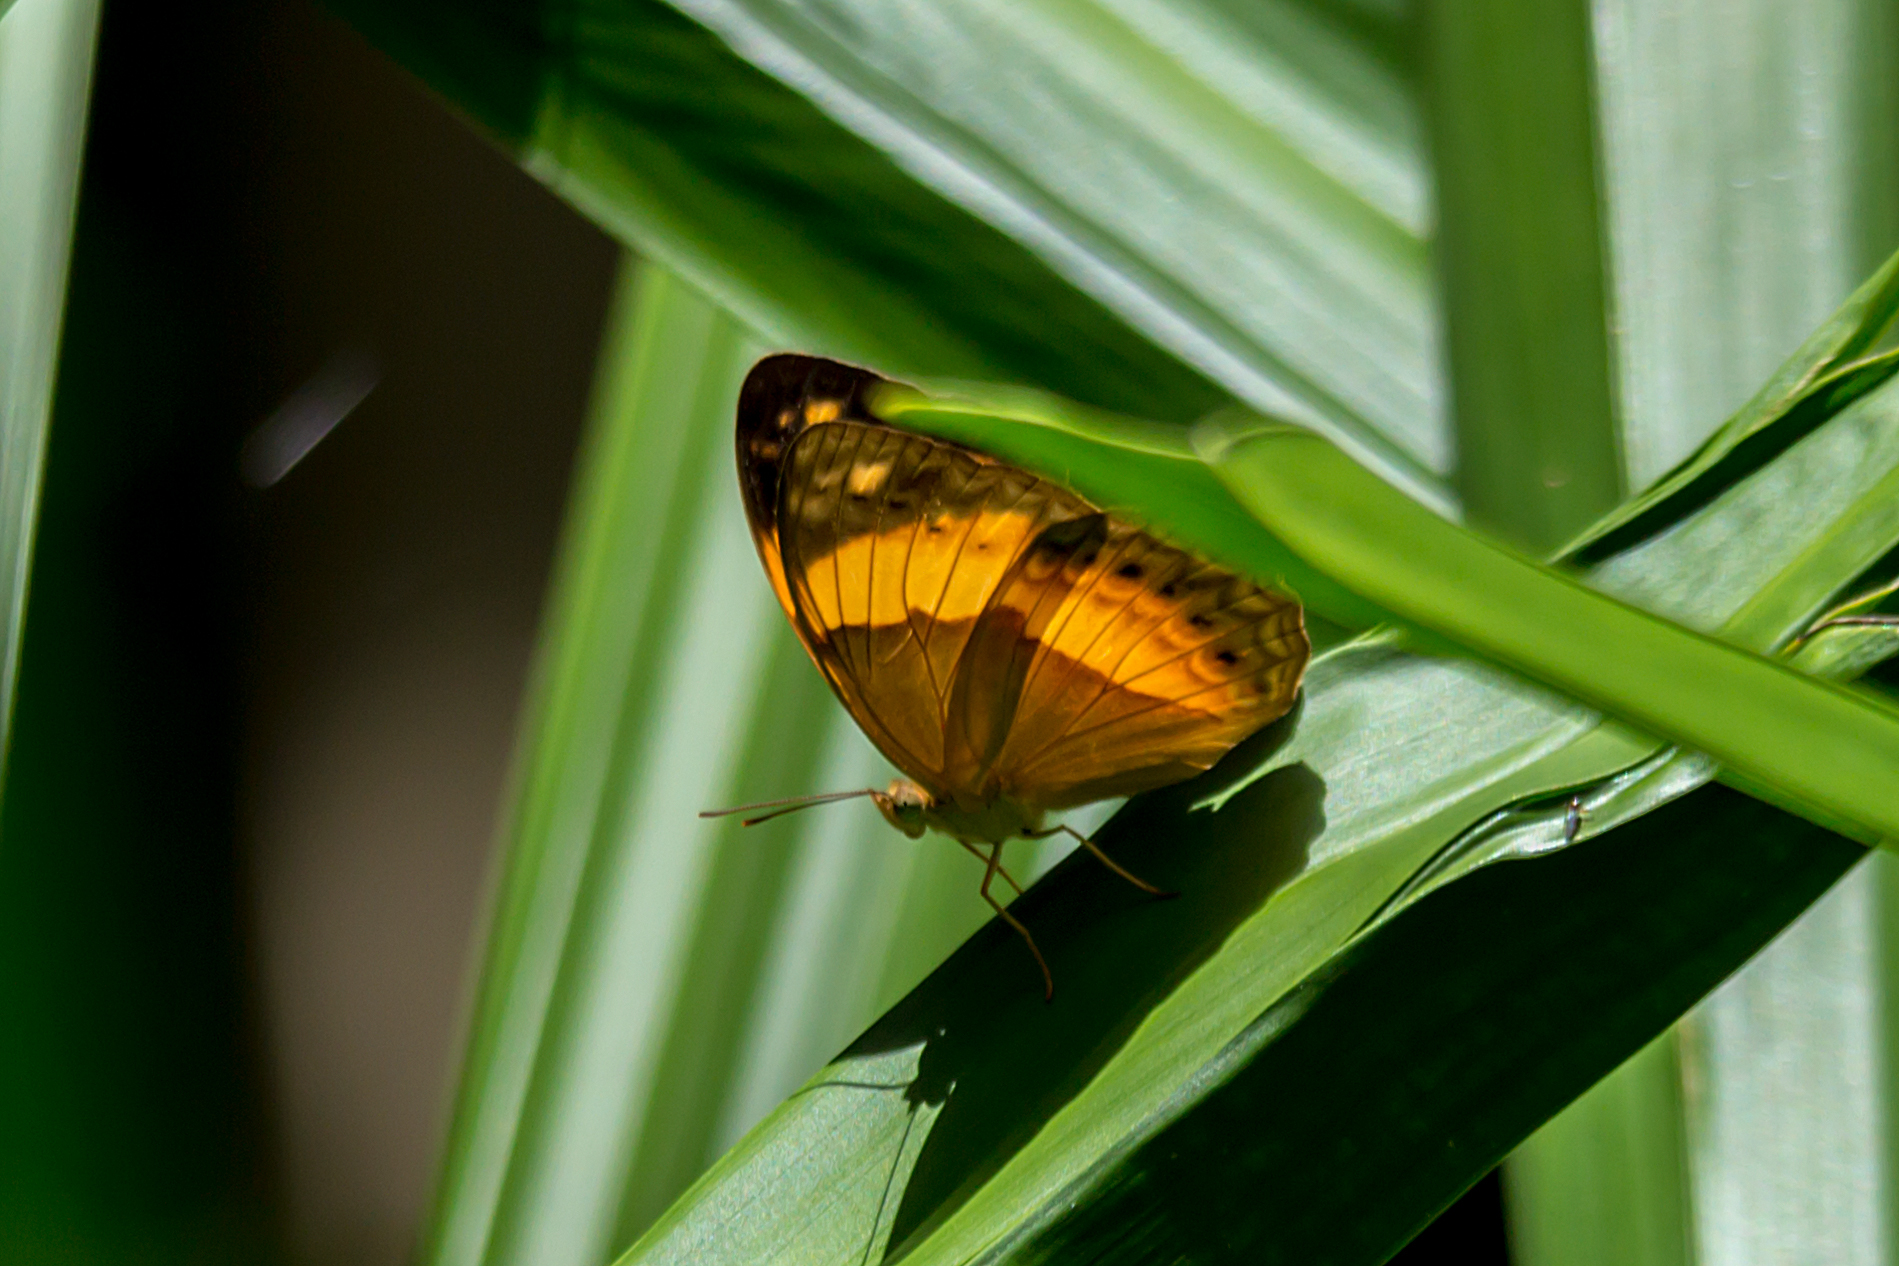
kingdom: Animalia
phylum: Arthropoda
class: Insecta
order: Lepidoptera
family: Nymphalidae
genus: Cupha
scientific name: Cupha prosope
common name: Bordered rustic
